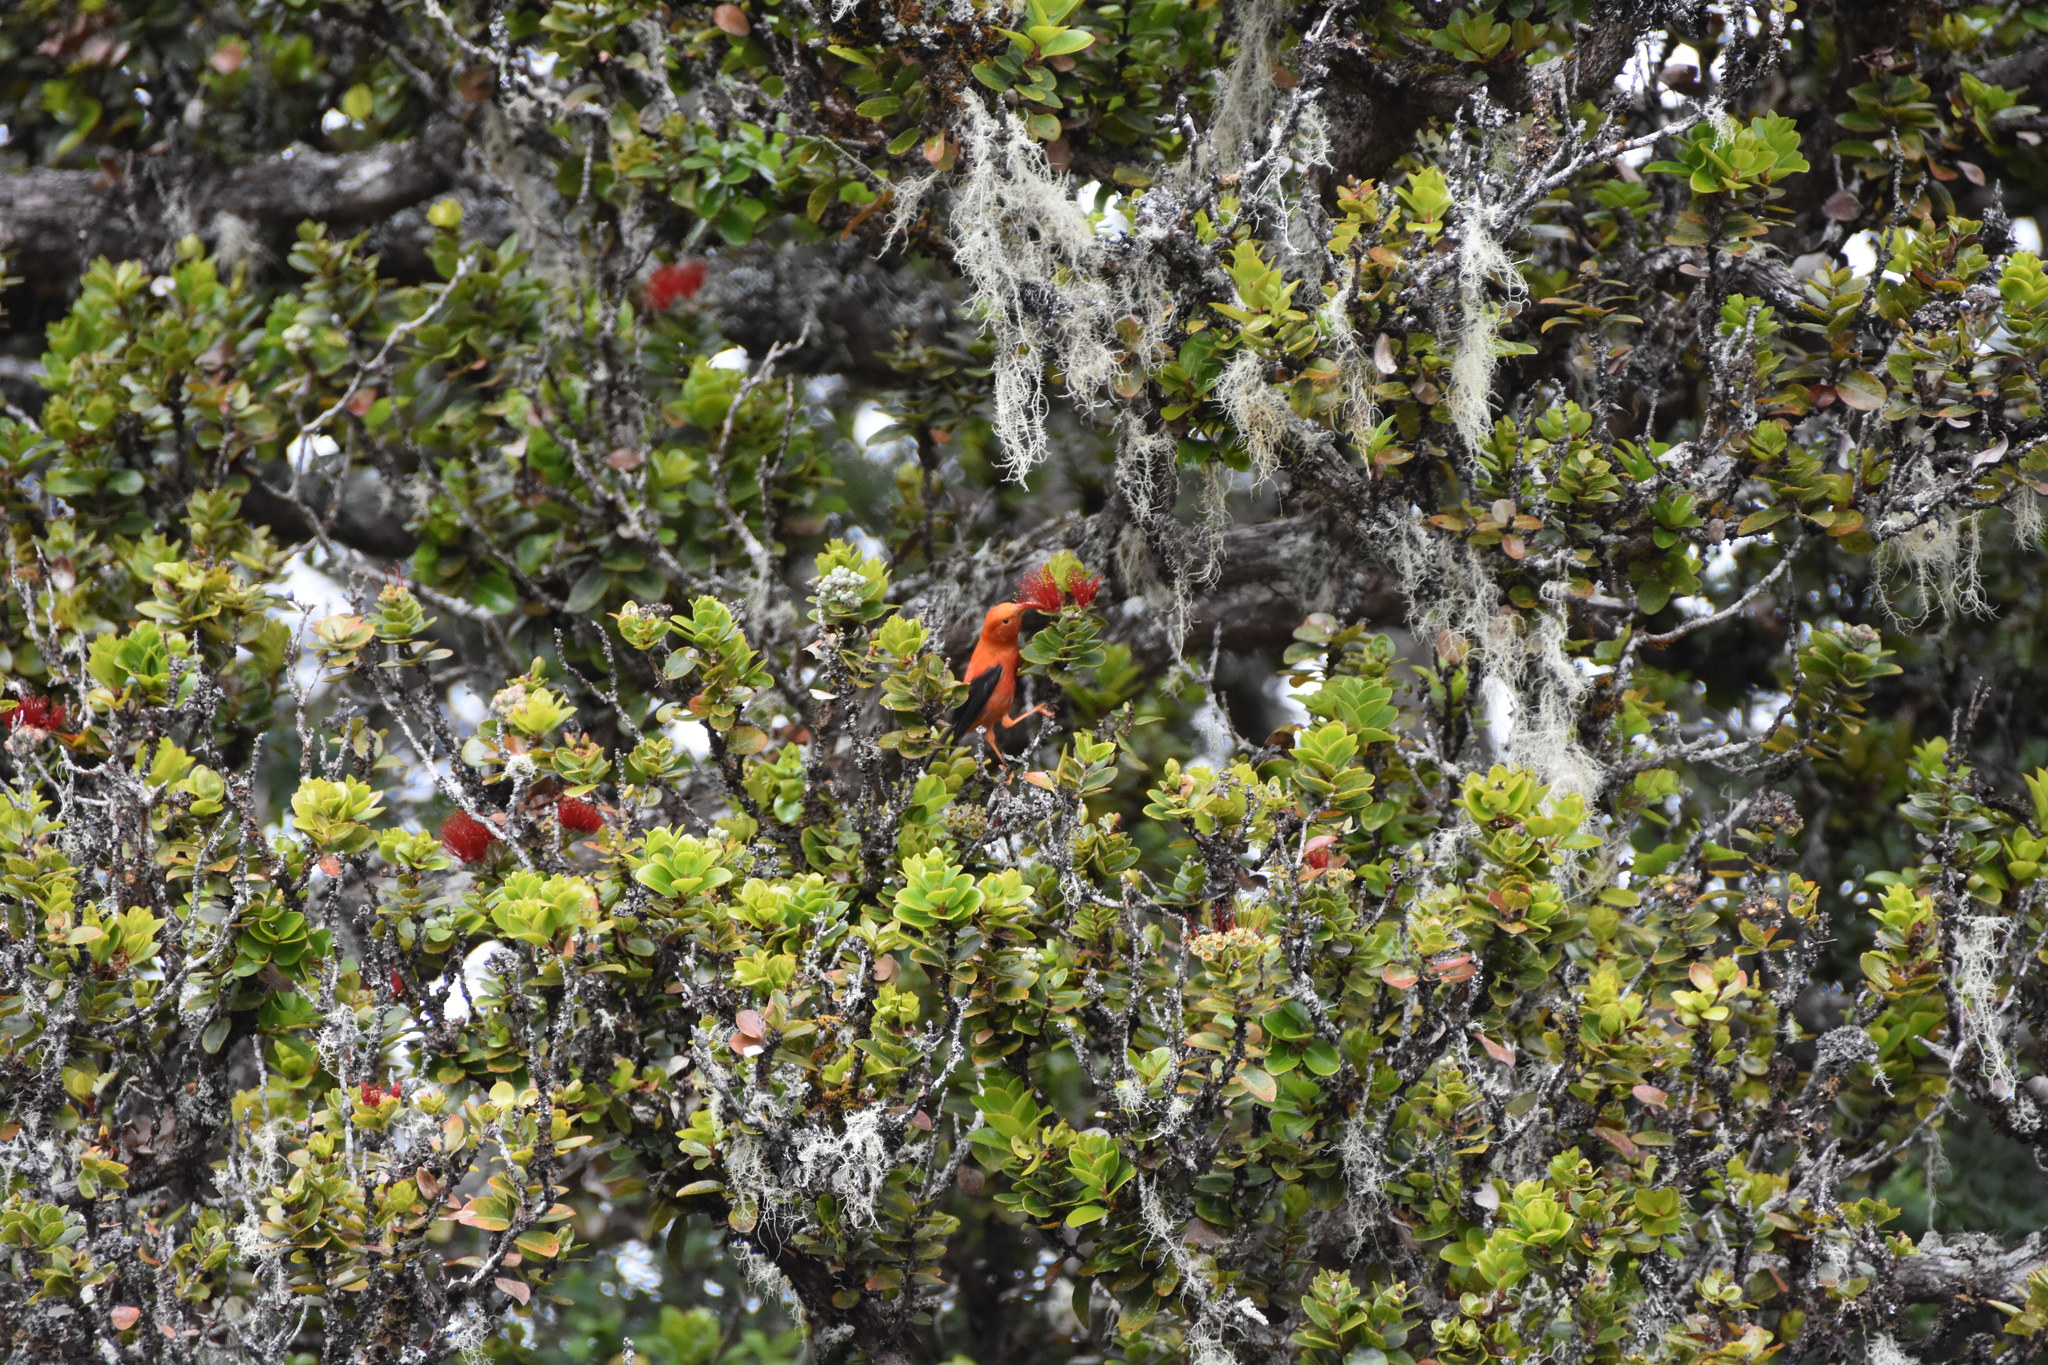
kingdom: Animalia
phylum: Chordata
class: Aves
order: Passeriformes
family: Fringillidae
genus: Vestiaria
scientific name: Vestiaria coccinea
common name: Iiwi
